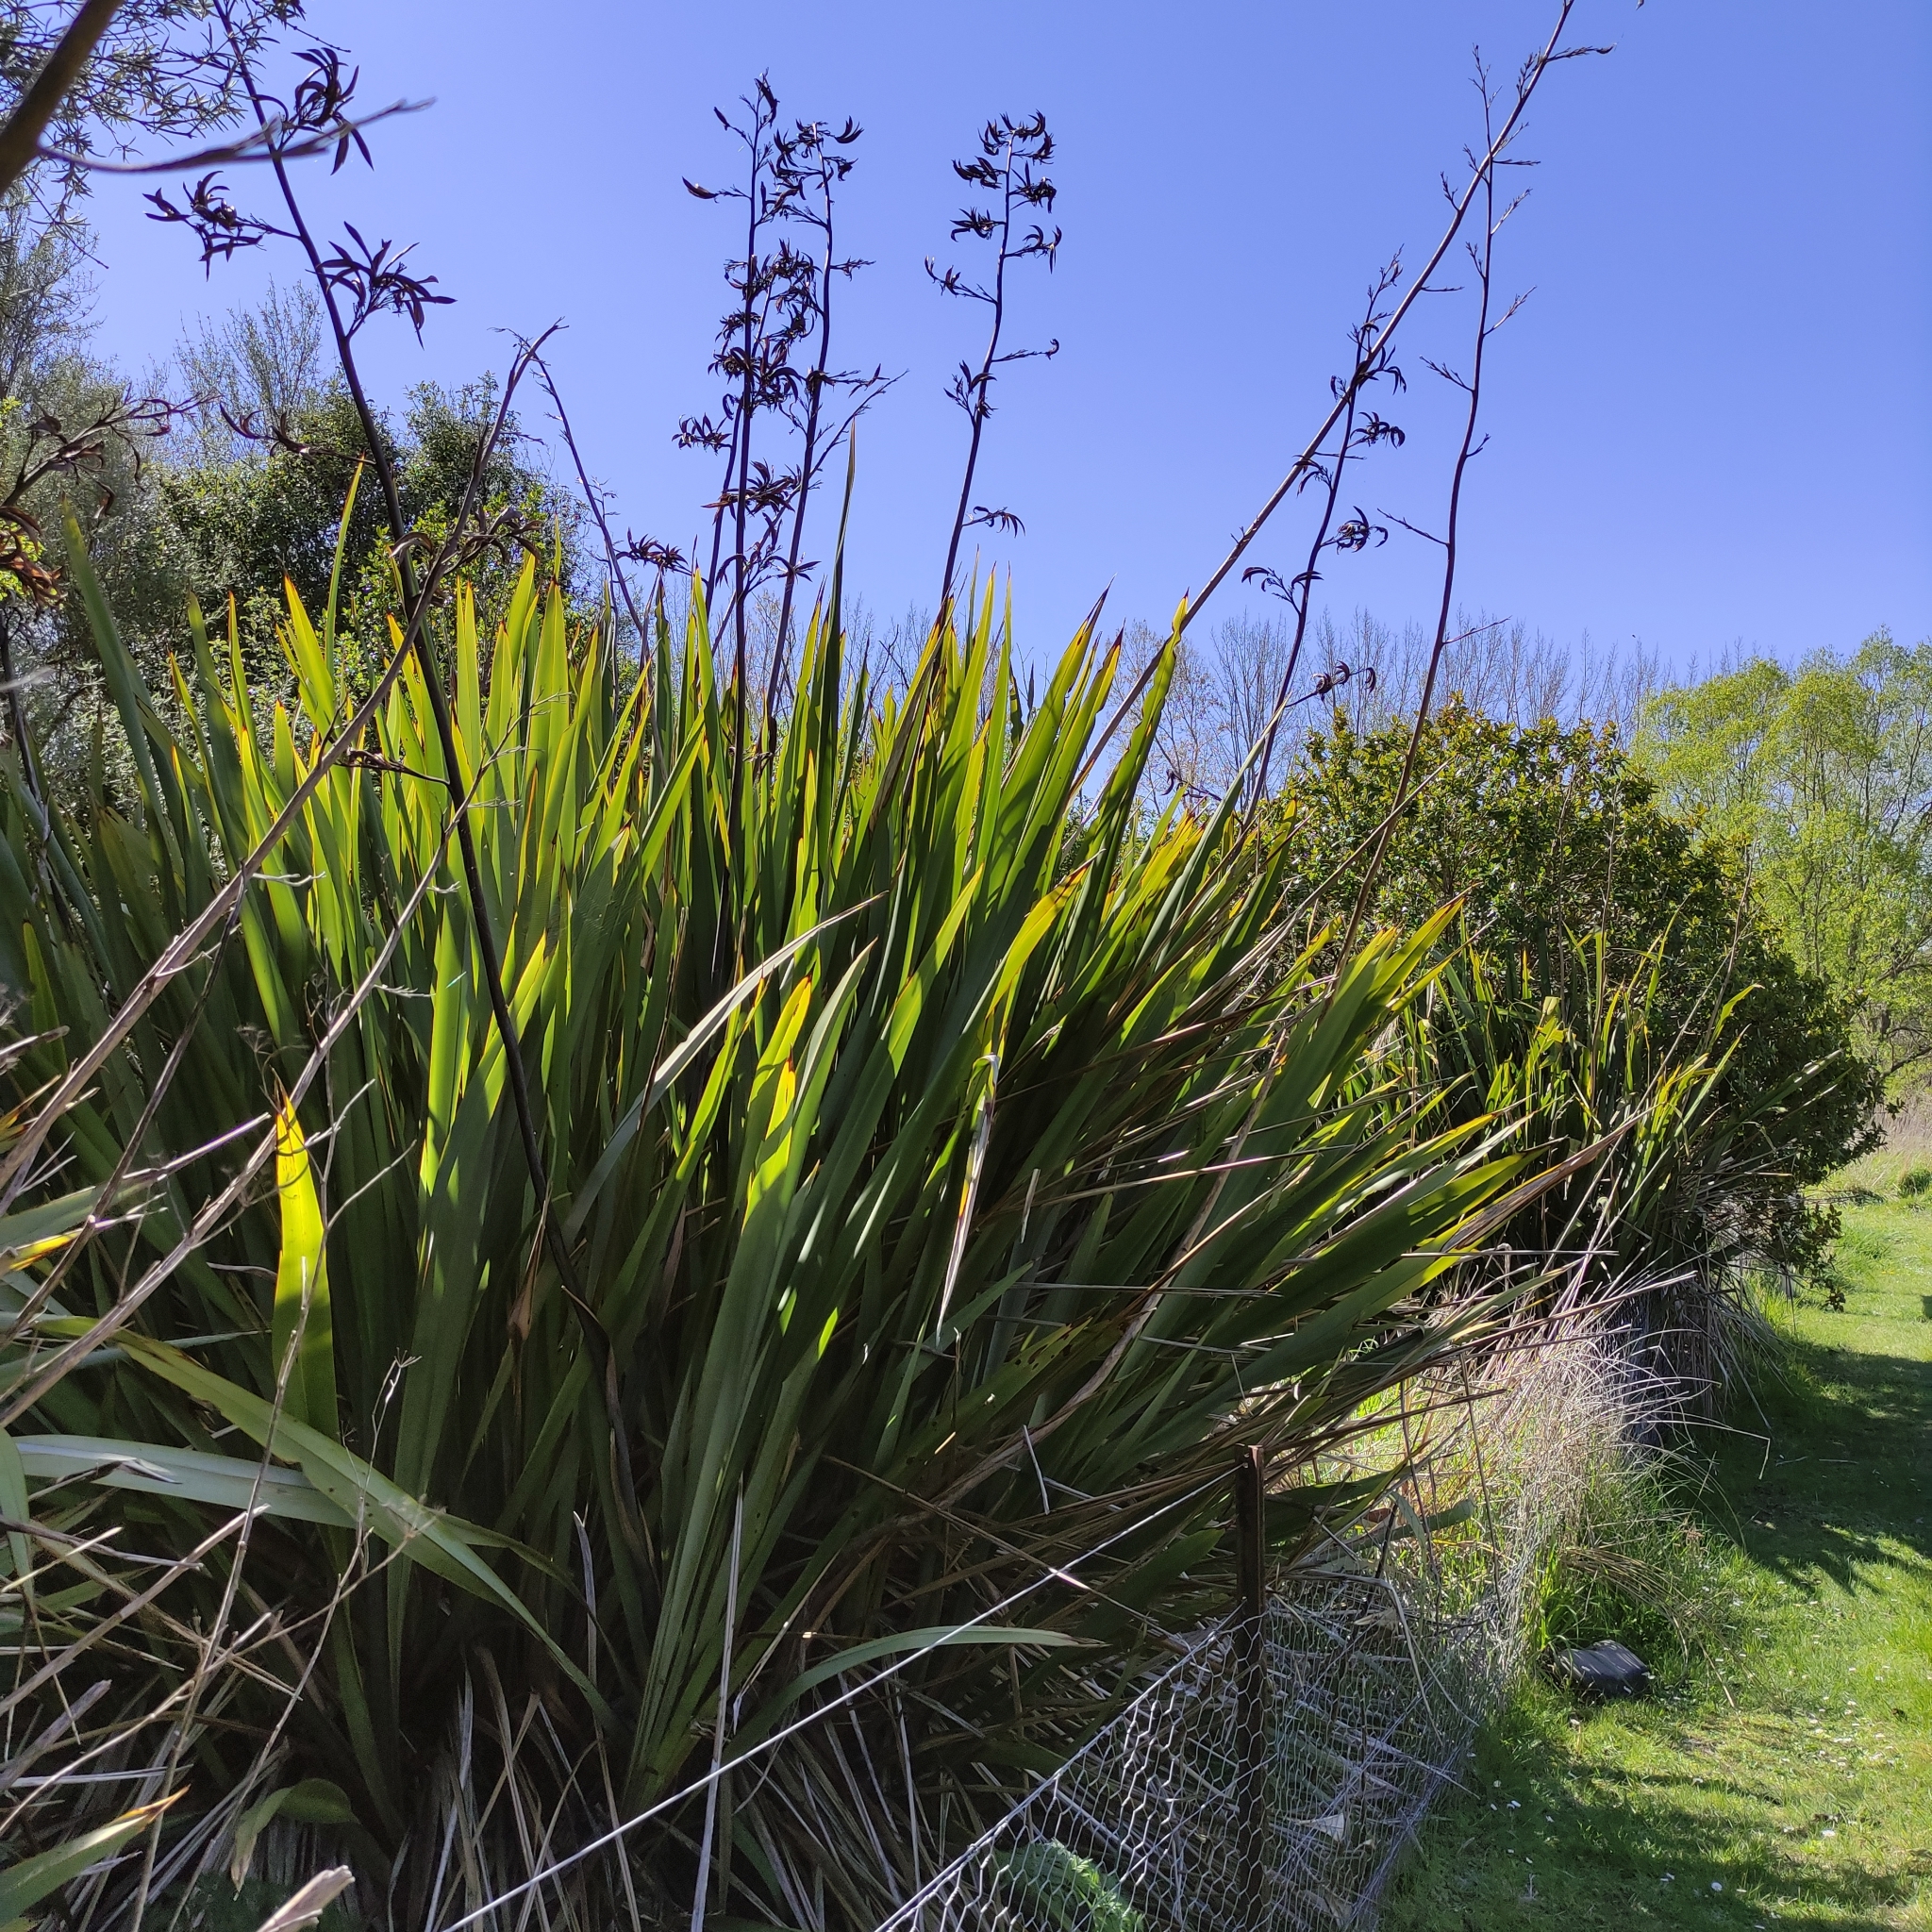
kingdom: Plantae
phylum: Tracheophyta
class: Liliopsida
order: Asparagales
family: Asphodelaceae
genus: Phormium
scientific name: Phormium tenax
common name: New zealand flax
